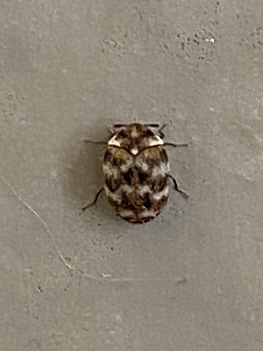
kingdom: Animalia
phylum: Arthropoda
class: Insecta
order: Coleoptera
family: Dermestidae
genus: Anthrenus
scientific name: Anthrenus verbasci
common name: Varied carpet beetle
